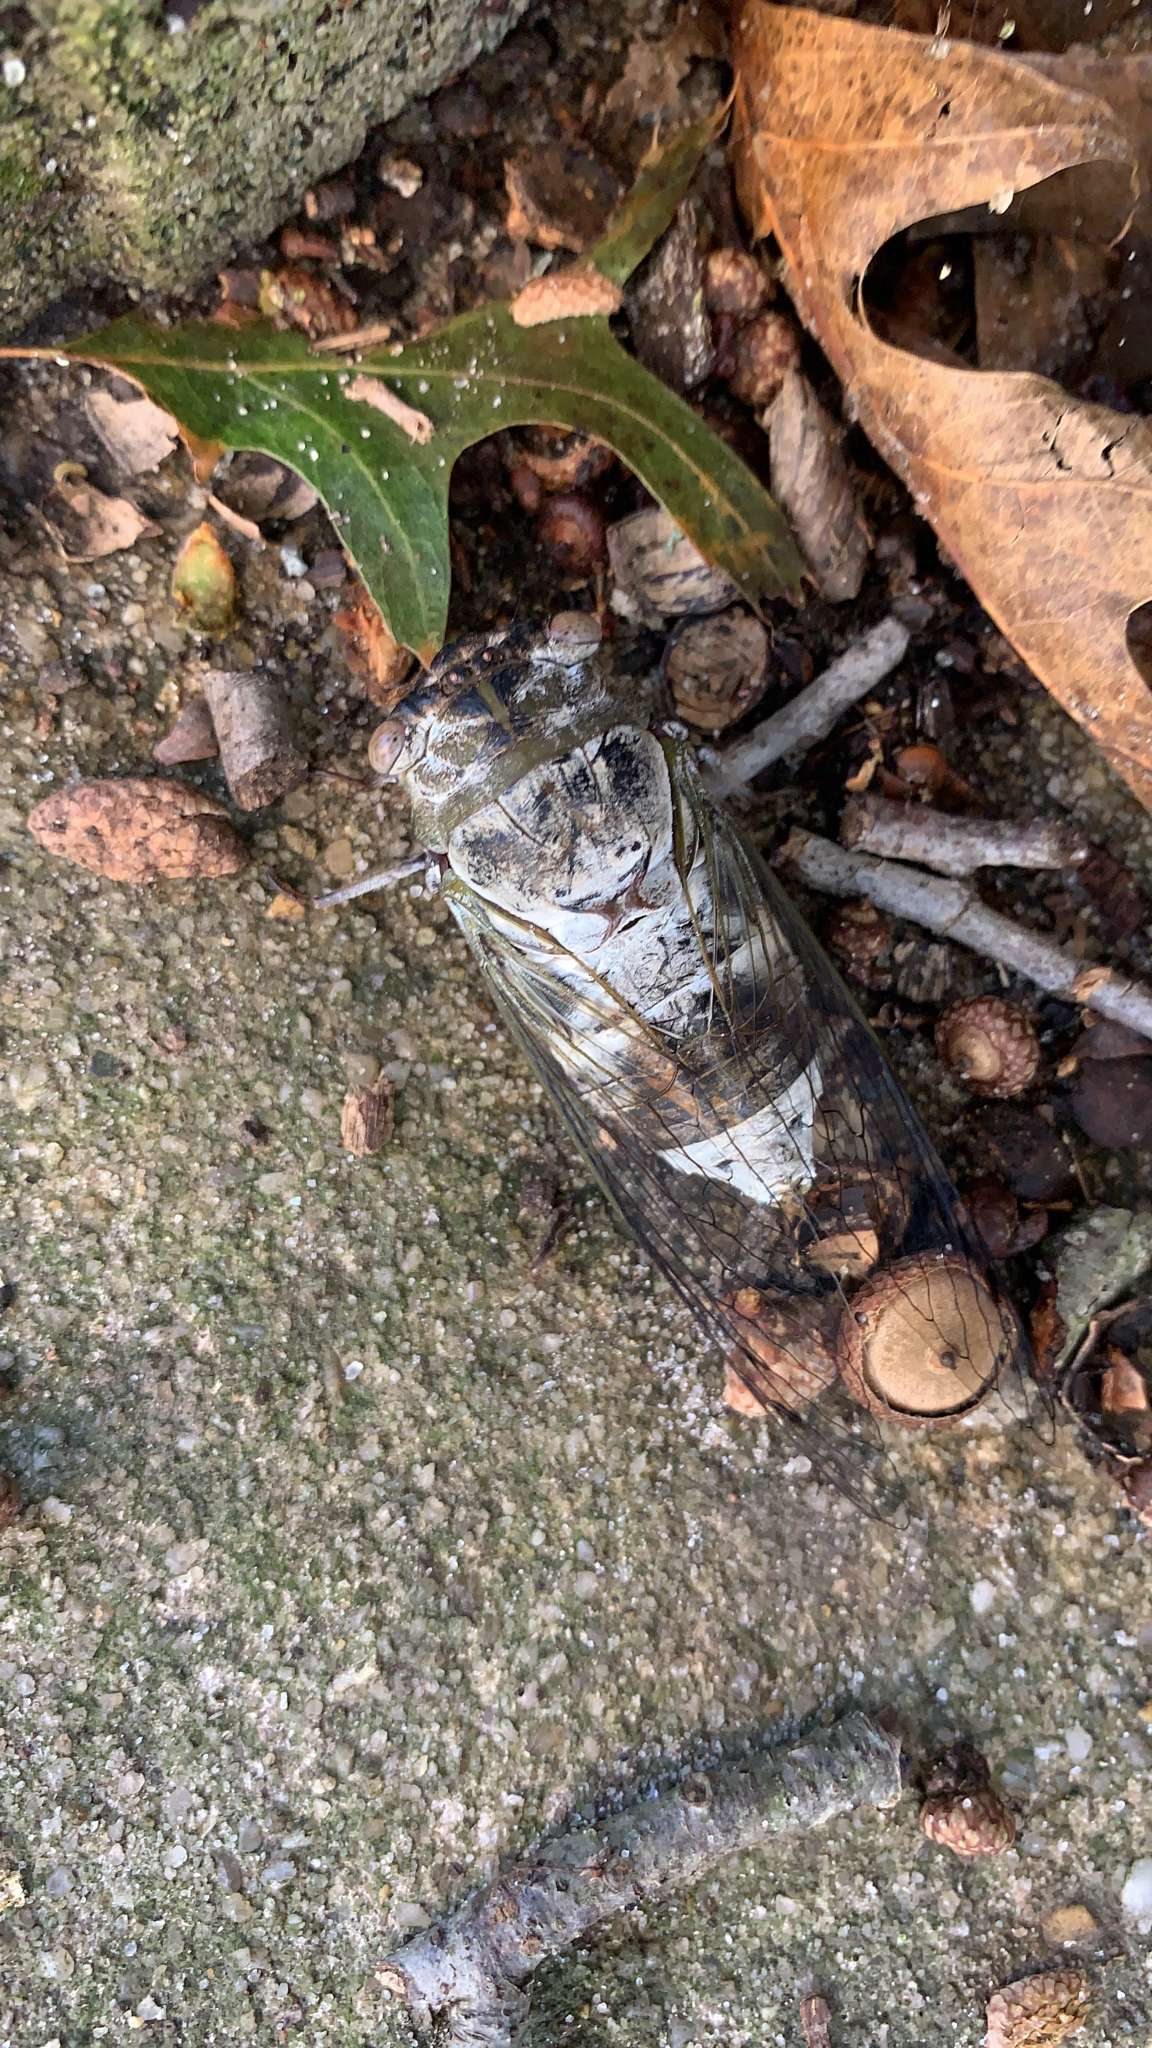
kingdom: Animalia
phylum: Arthropoda
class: Insecta
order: Hemiptera
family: Cicadidae
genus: Diceroprocta
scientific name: Diceroprocta grossa
